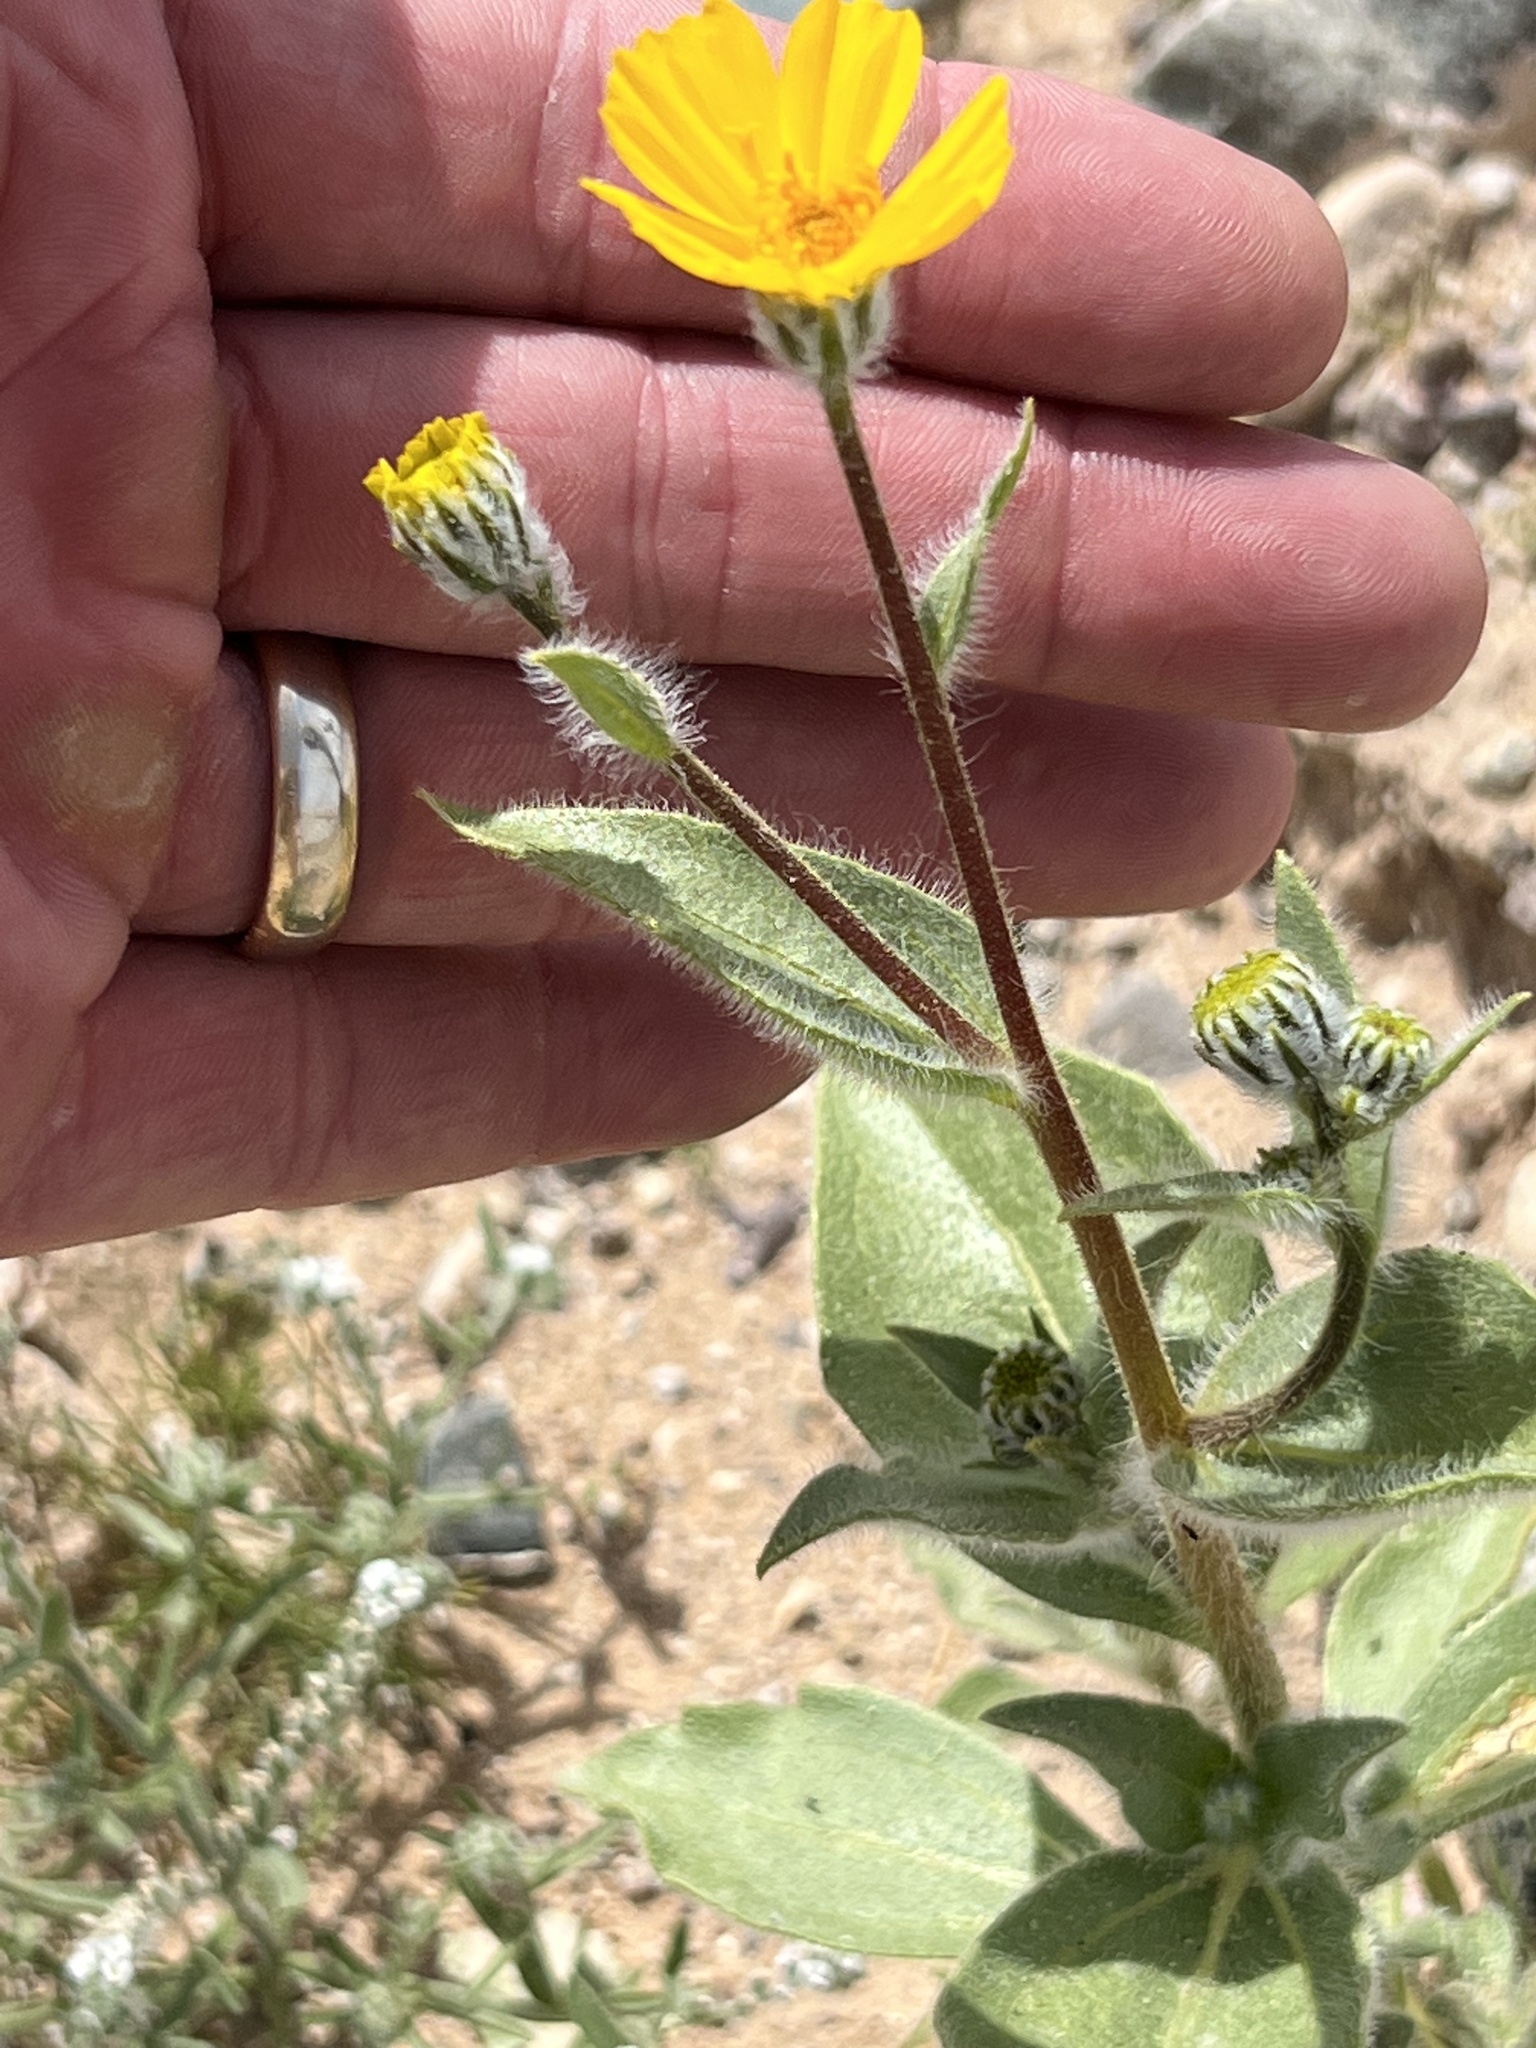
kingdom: Plantae
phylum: Tracheophyta
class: Magnoliopsida
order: Asterales
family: Asteraceae
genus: Geraea
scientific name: Geraea canescens
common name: Desert-gold
